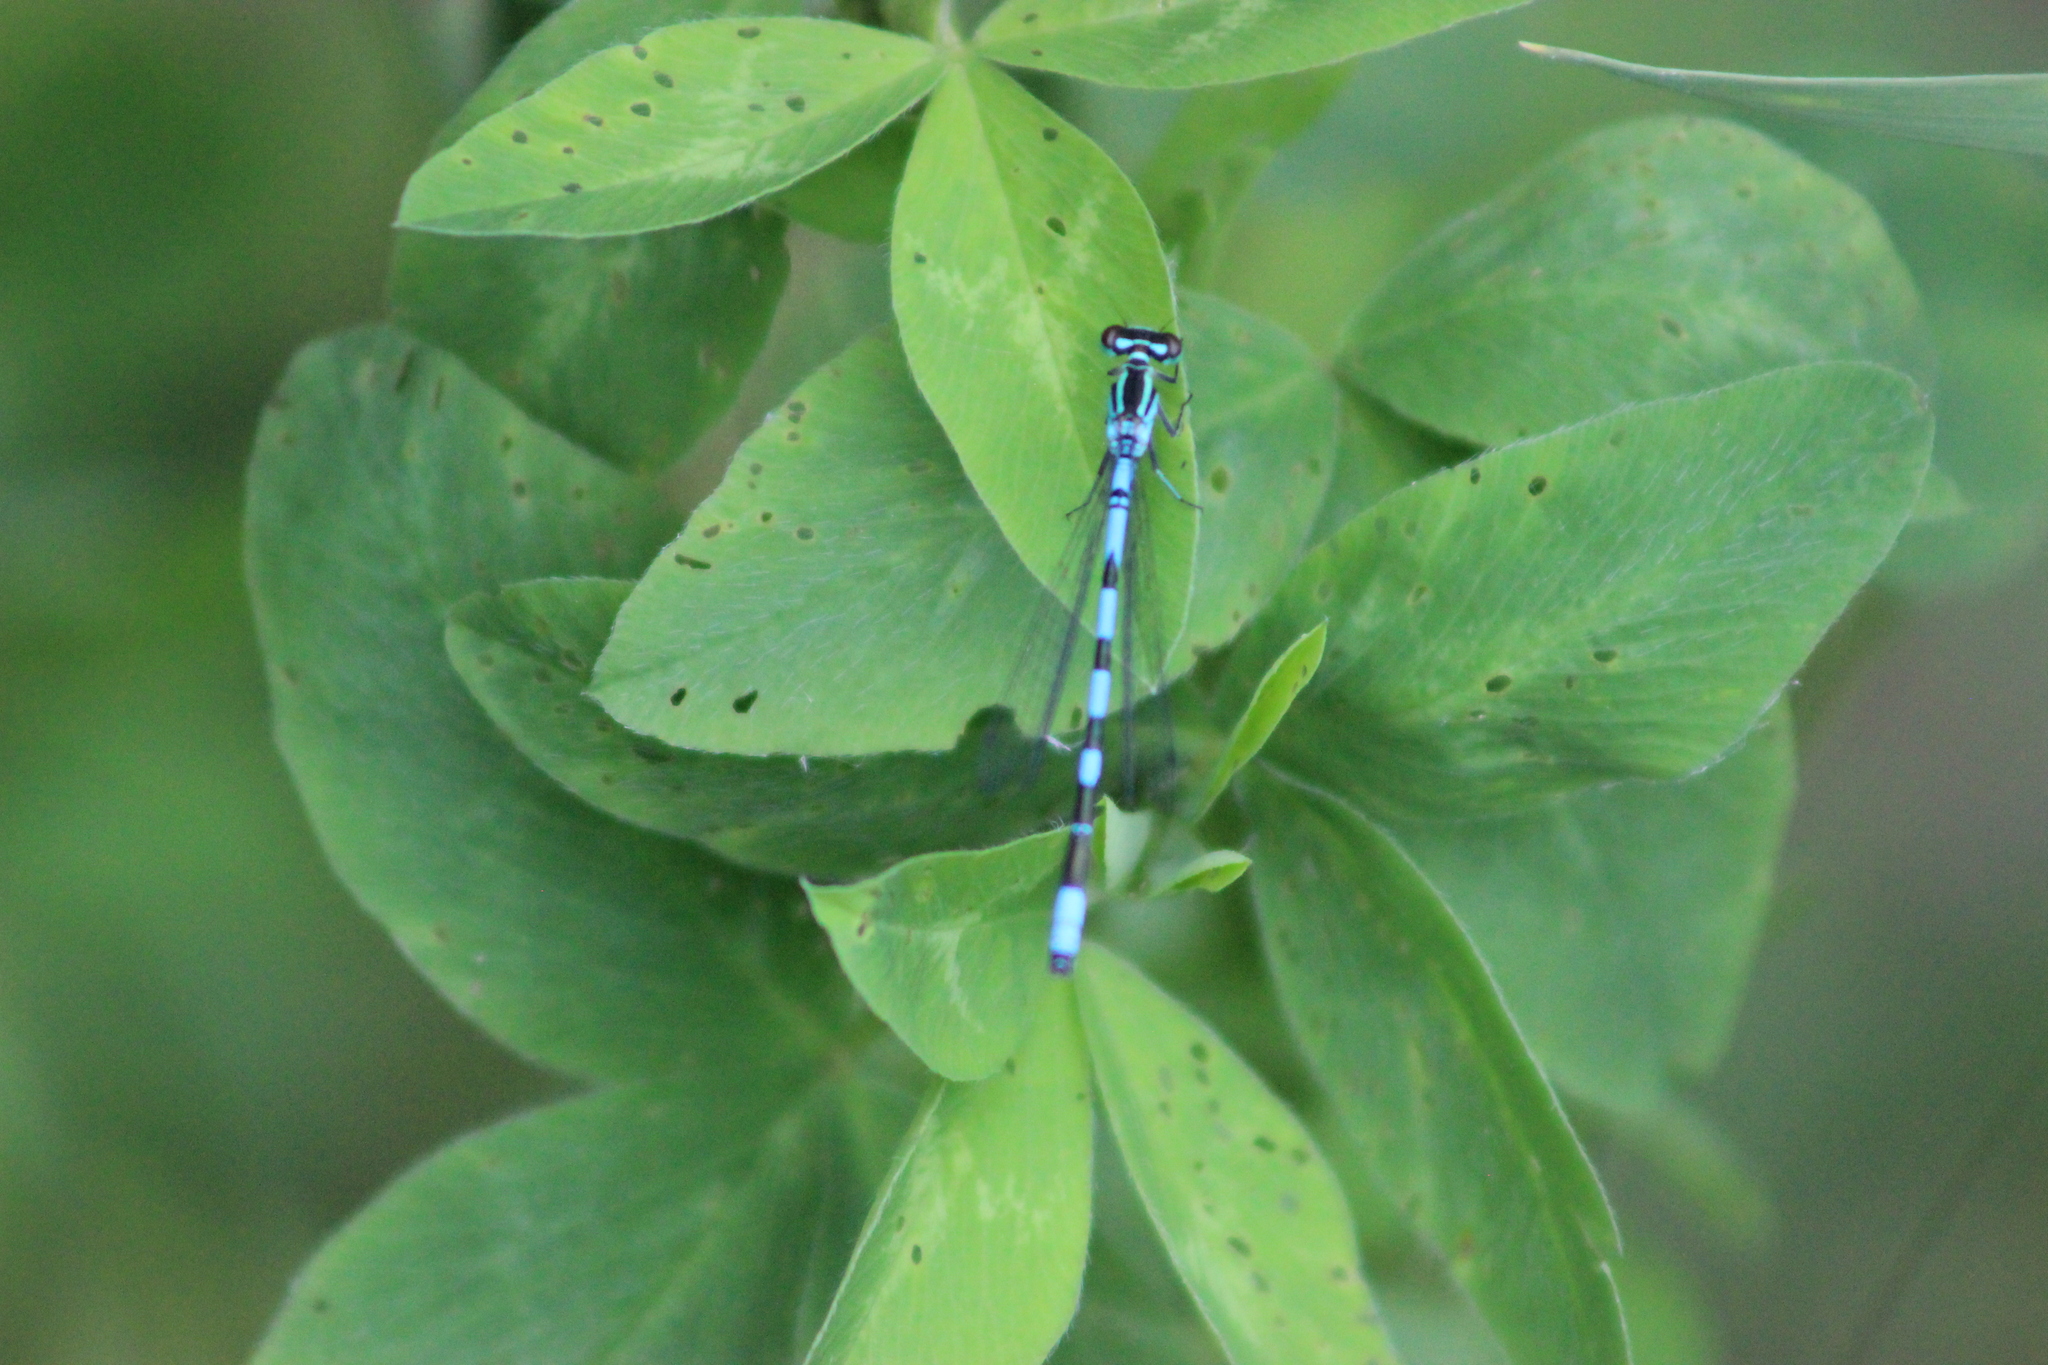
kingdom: Animalia
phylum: Arthropoda
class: Insecta
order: Odonata
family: Coenagrionidae
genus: Coenagrion
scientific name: Coenagrion hastulatum
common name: Spearhead bluet
